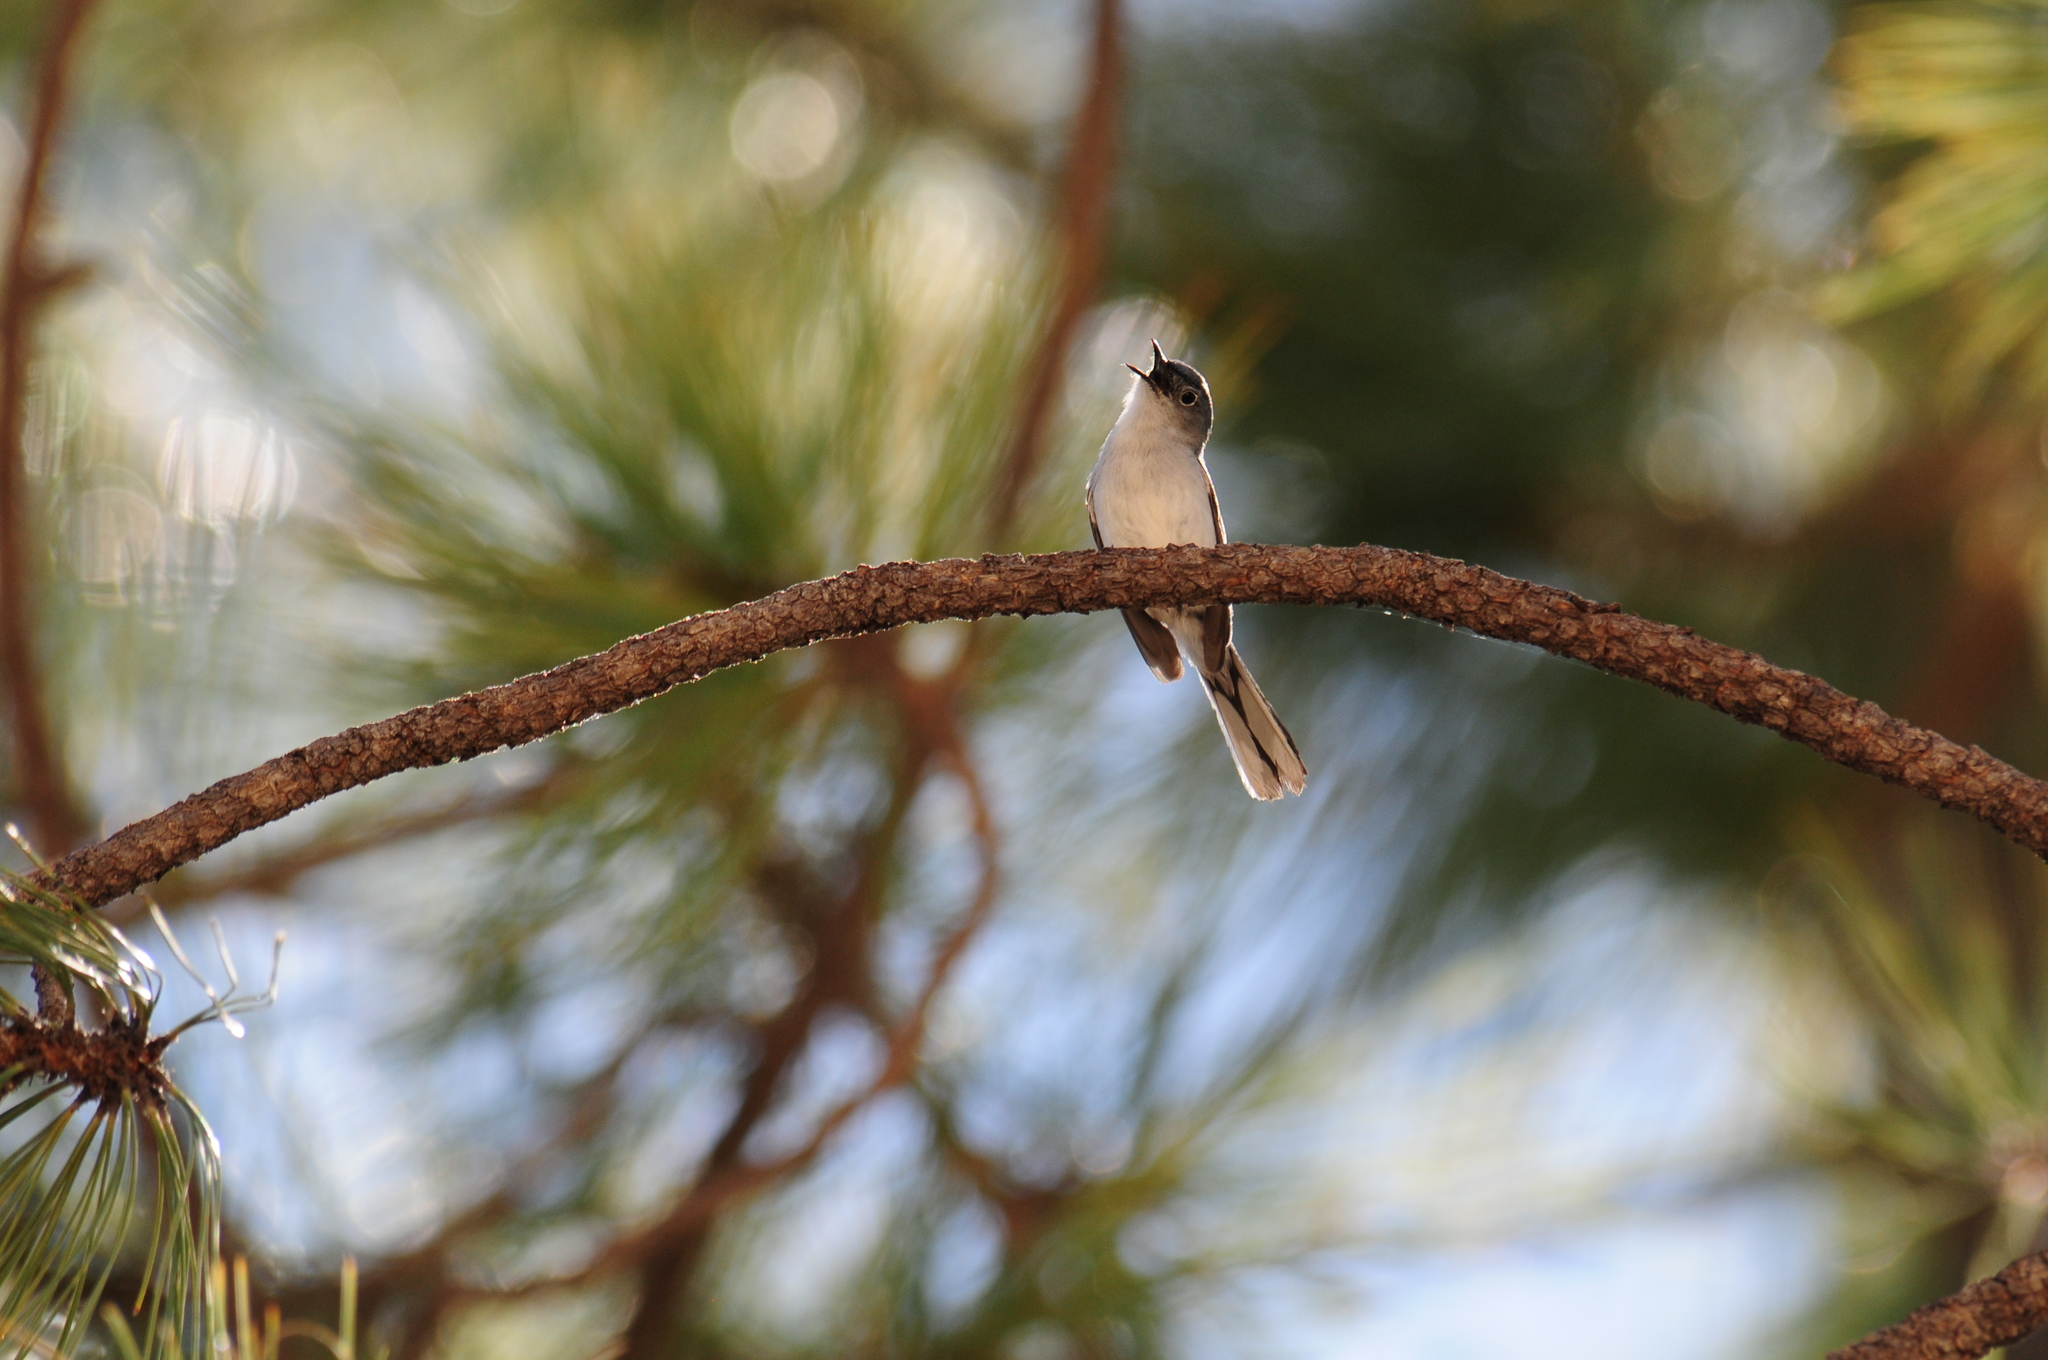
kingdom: Animalia
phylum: Chordata
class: Aves
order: Passeriformes
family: Polioptilidae
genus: Polioptila
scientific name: Polioptila caerulea
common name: Blue-gray gnatcatcher
